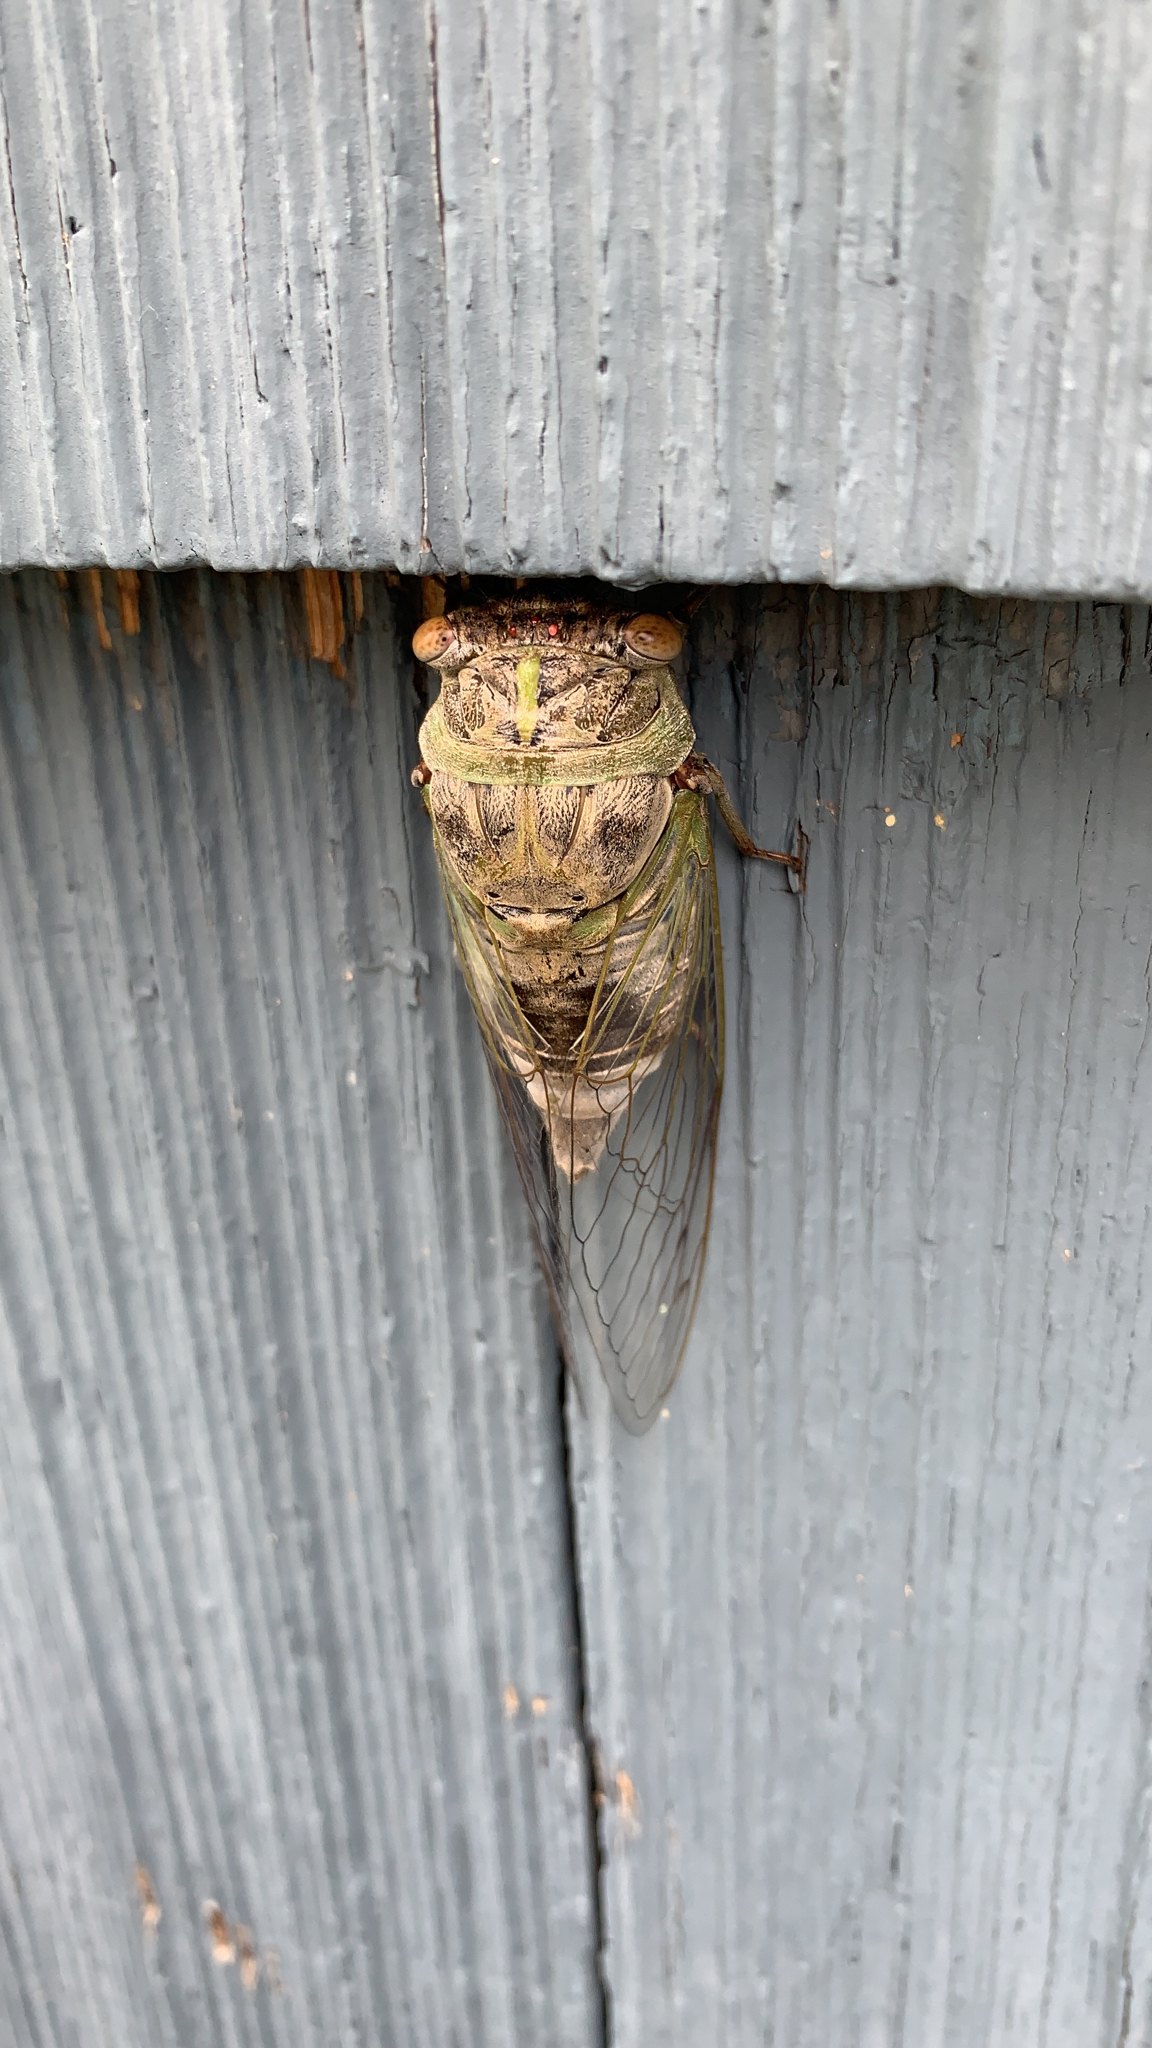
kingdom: Animalia
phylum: Arthropoda
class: Insecta
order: Hemiptera
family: Cicadidae
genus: Diceroprocta
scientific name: Diceroprocta grossa
